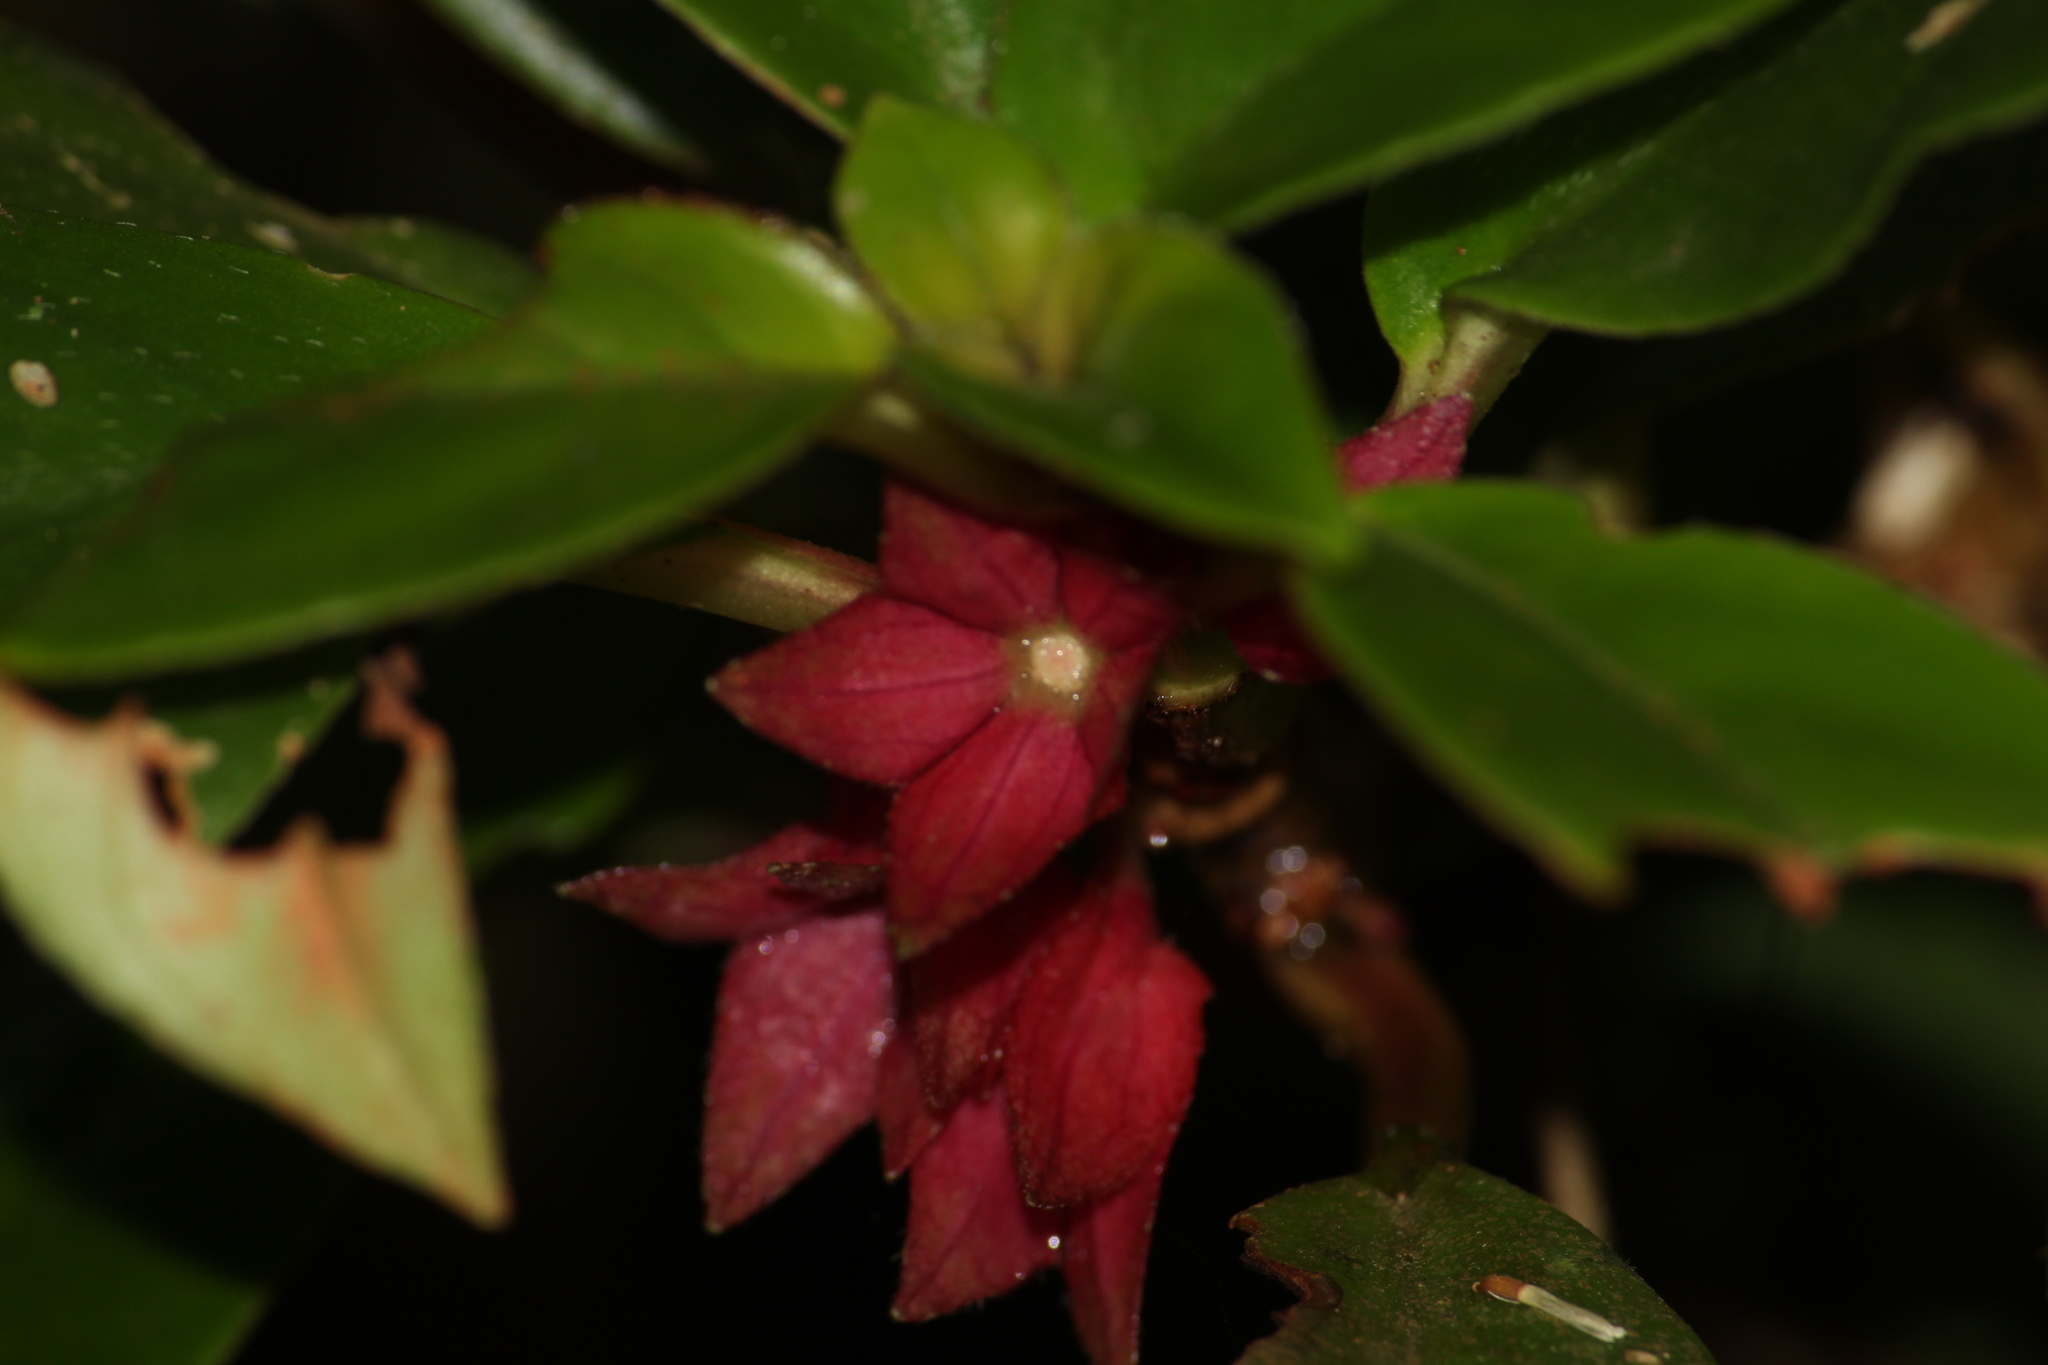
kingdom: Plantae
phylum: Tracheophyta
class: Magnoliopsida
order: Lamiales
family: Gesneriaceae
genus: Nematanthus
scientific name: Nematanthus tessmannii
